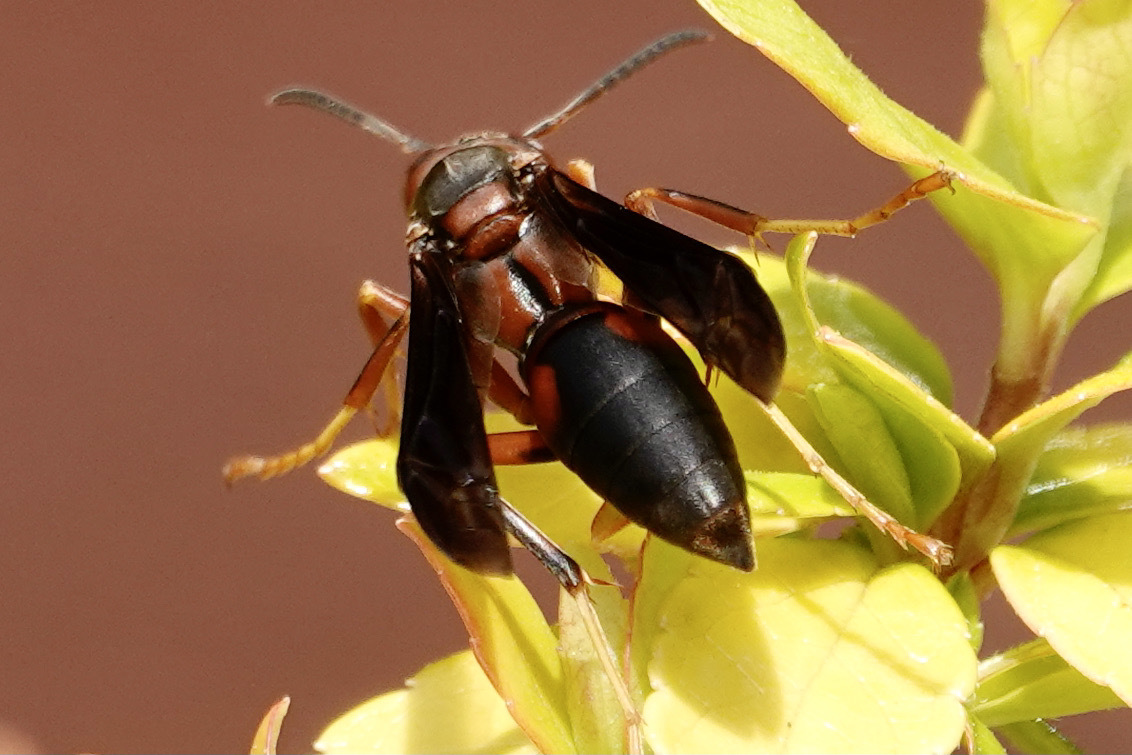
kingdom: Animalia
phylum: Arthropoda
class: Insecta
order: Hymenoptera
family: Eumenidae
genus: Polistes
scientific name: Polistes fuscatus
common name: Dark paper wasp
